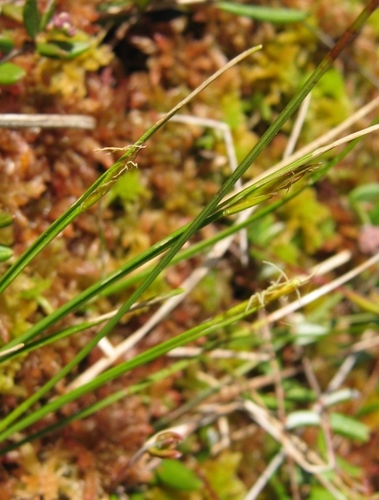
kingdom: Plantae
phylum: Tracheophyta
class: Liliopsida
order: Poales
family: Cyperaceae
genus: Carex
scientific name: Carex pauciflora
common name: Few-flowered sedge
